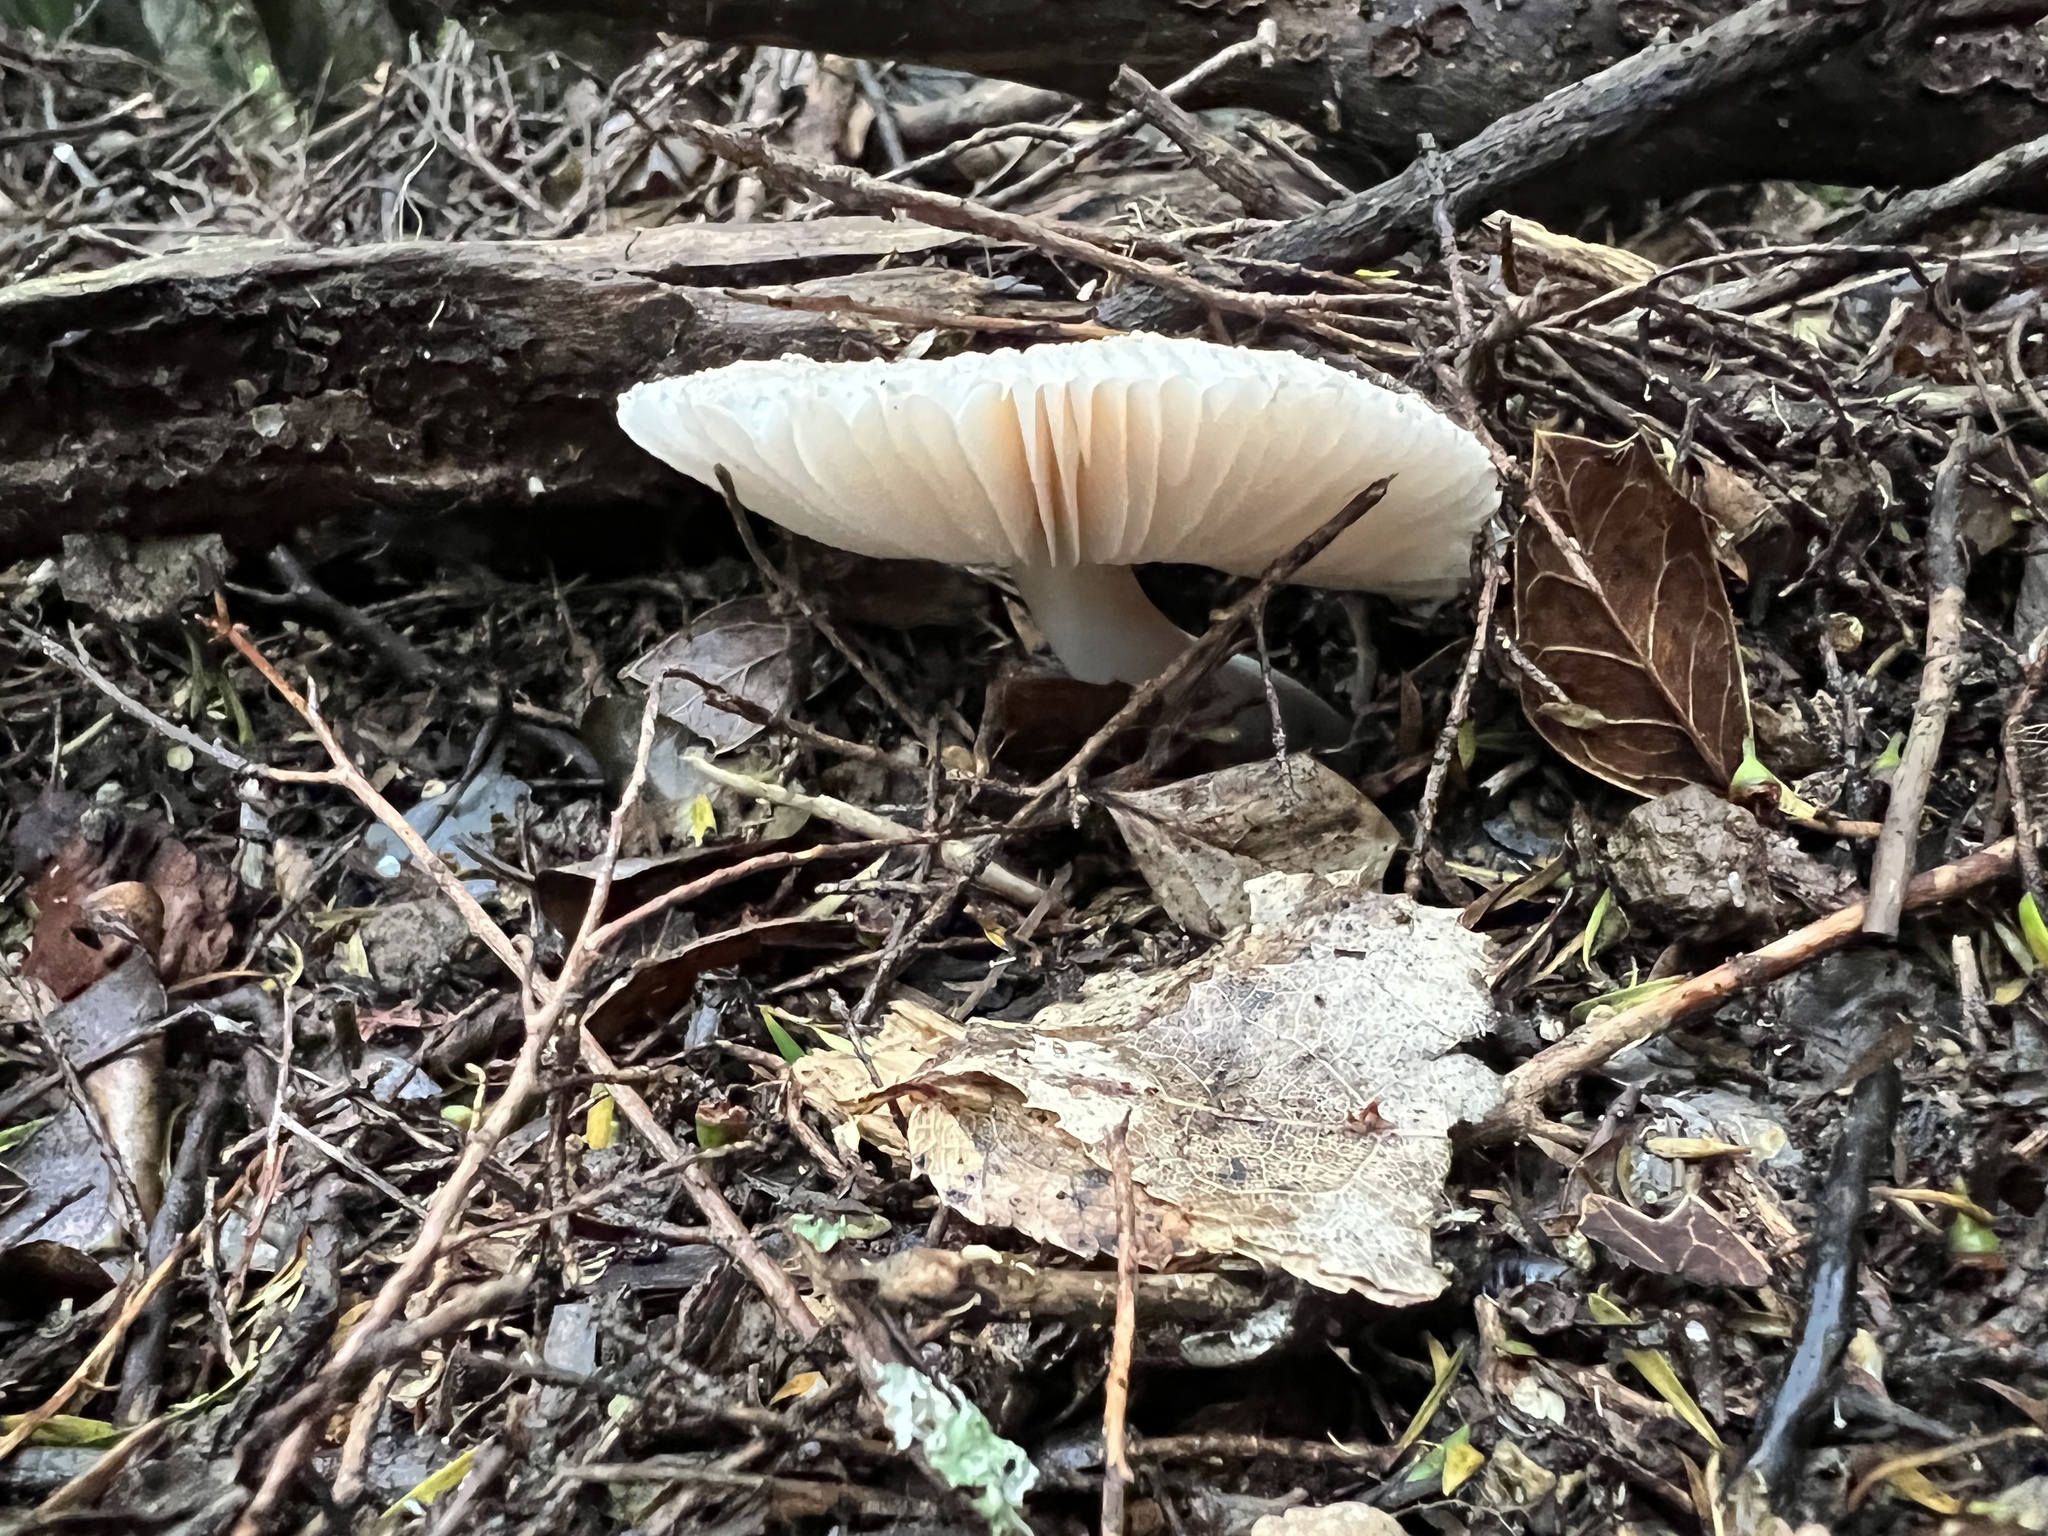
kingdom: Fungi
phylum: Basidiomycota
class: Agaricomycetes
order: Agaricales
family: Amanitaceae
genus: Amanita
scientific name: Amanita nehuta
